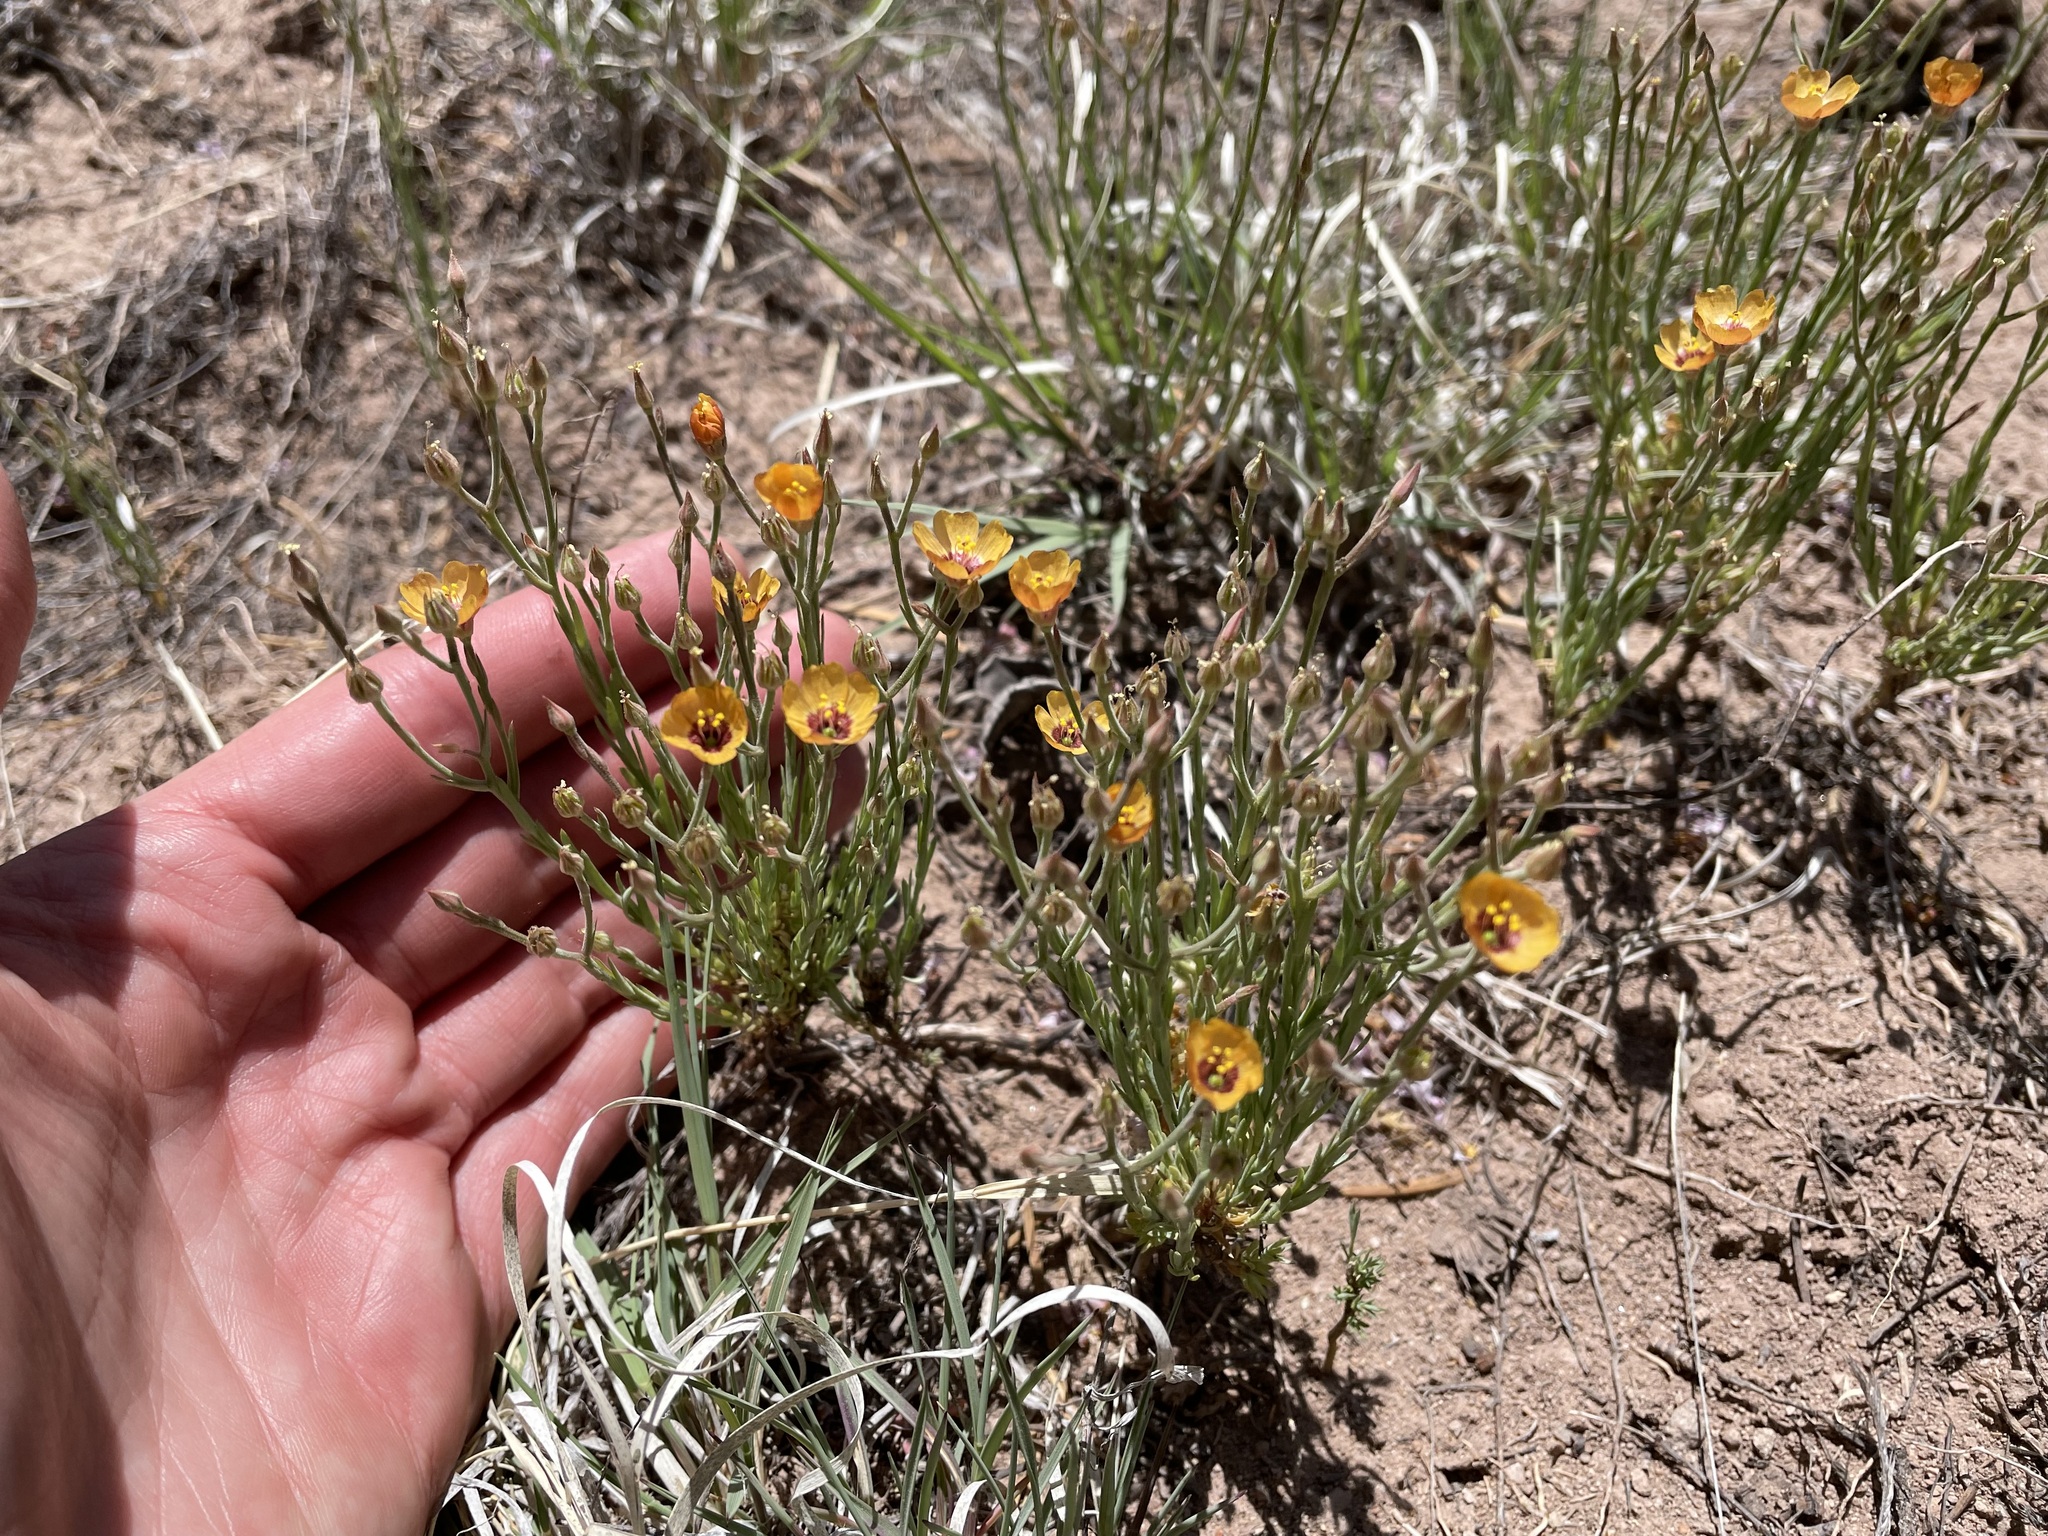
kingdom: Plantae
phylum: Tracheophyta
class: Magnoliopsida
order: Malpighiales
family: Linaceae
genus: Linum
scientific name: Linum puberulum
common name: Plains flax
